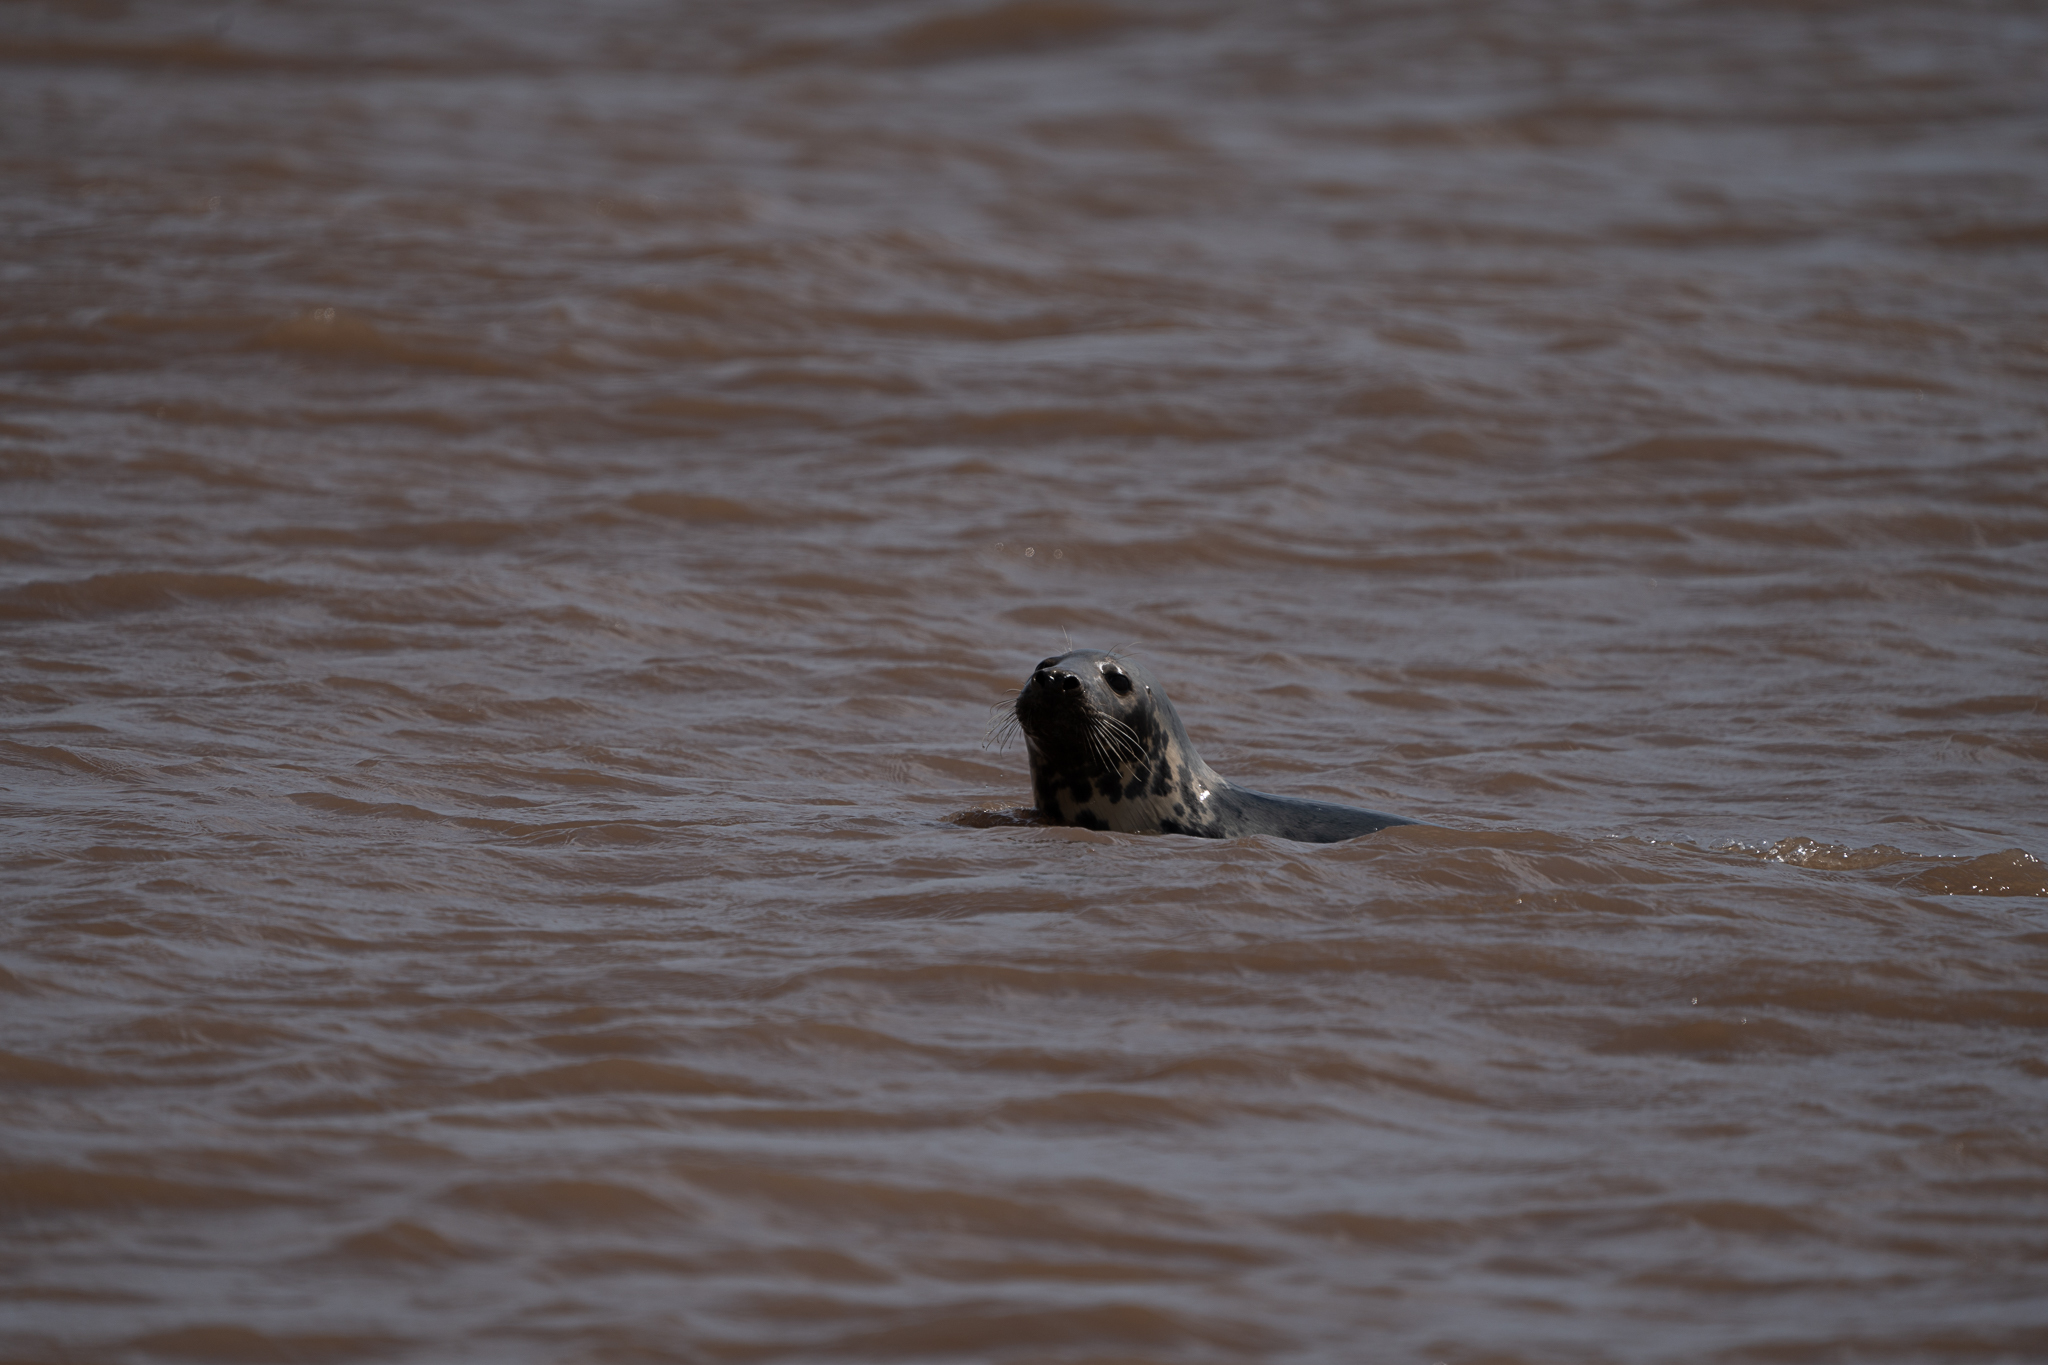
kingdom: Animalia
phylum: Chordata
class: Mammalia
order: Carnivora
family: Phocidae
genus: Halichoerus
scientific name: Halichoerus grypus
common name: Grey seal
